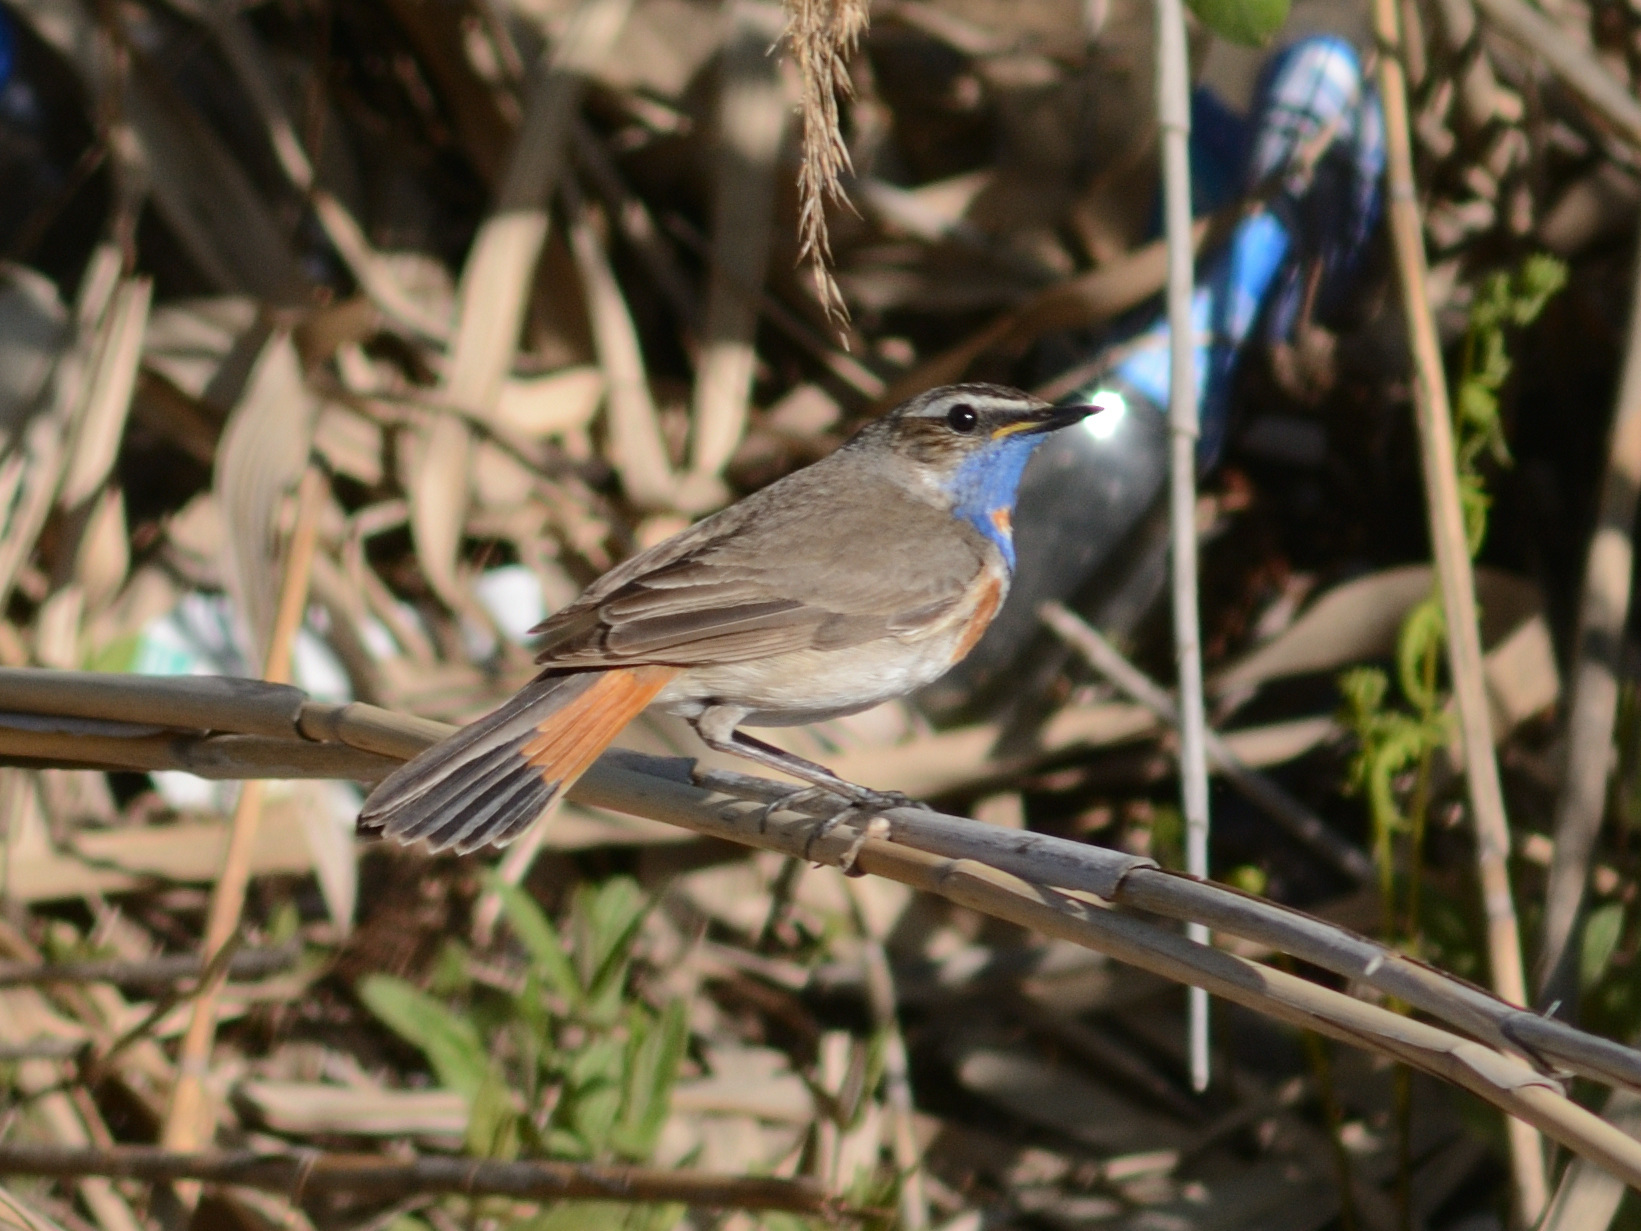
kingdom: Animalia
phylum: Chordata
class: Aves
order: Passeriformes
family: Muscicapidae
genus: Luscinia
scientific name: Luscinia svecica
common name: Bluethroat
